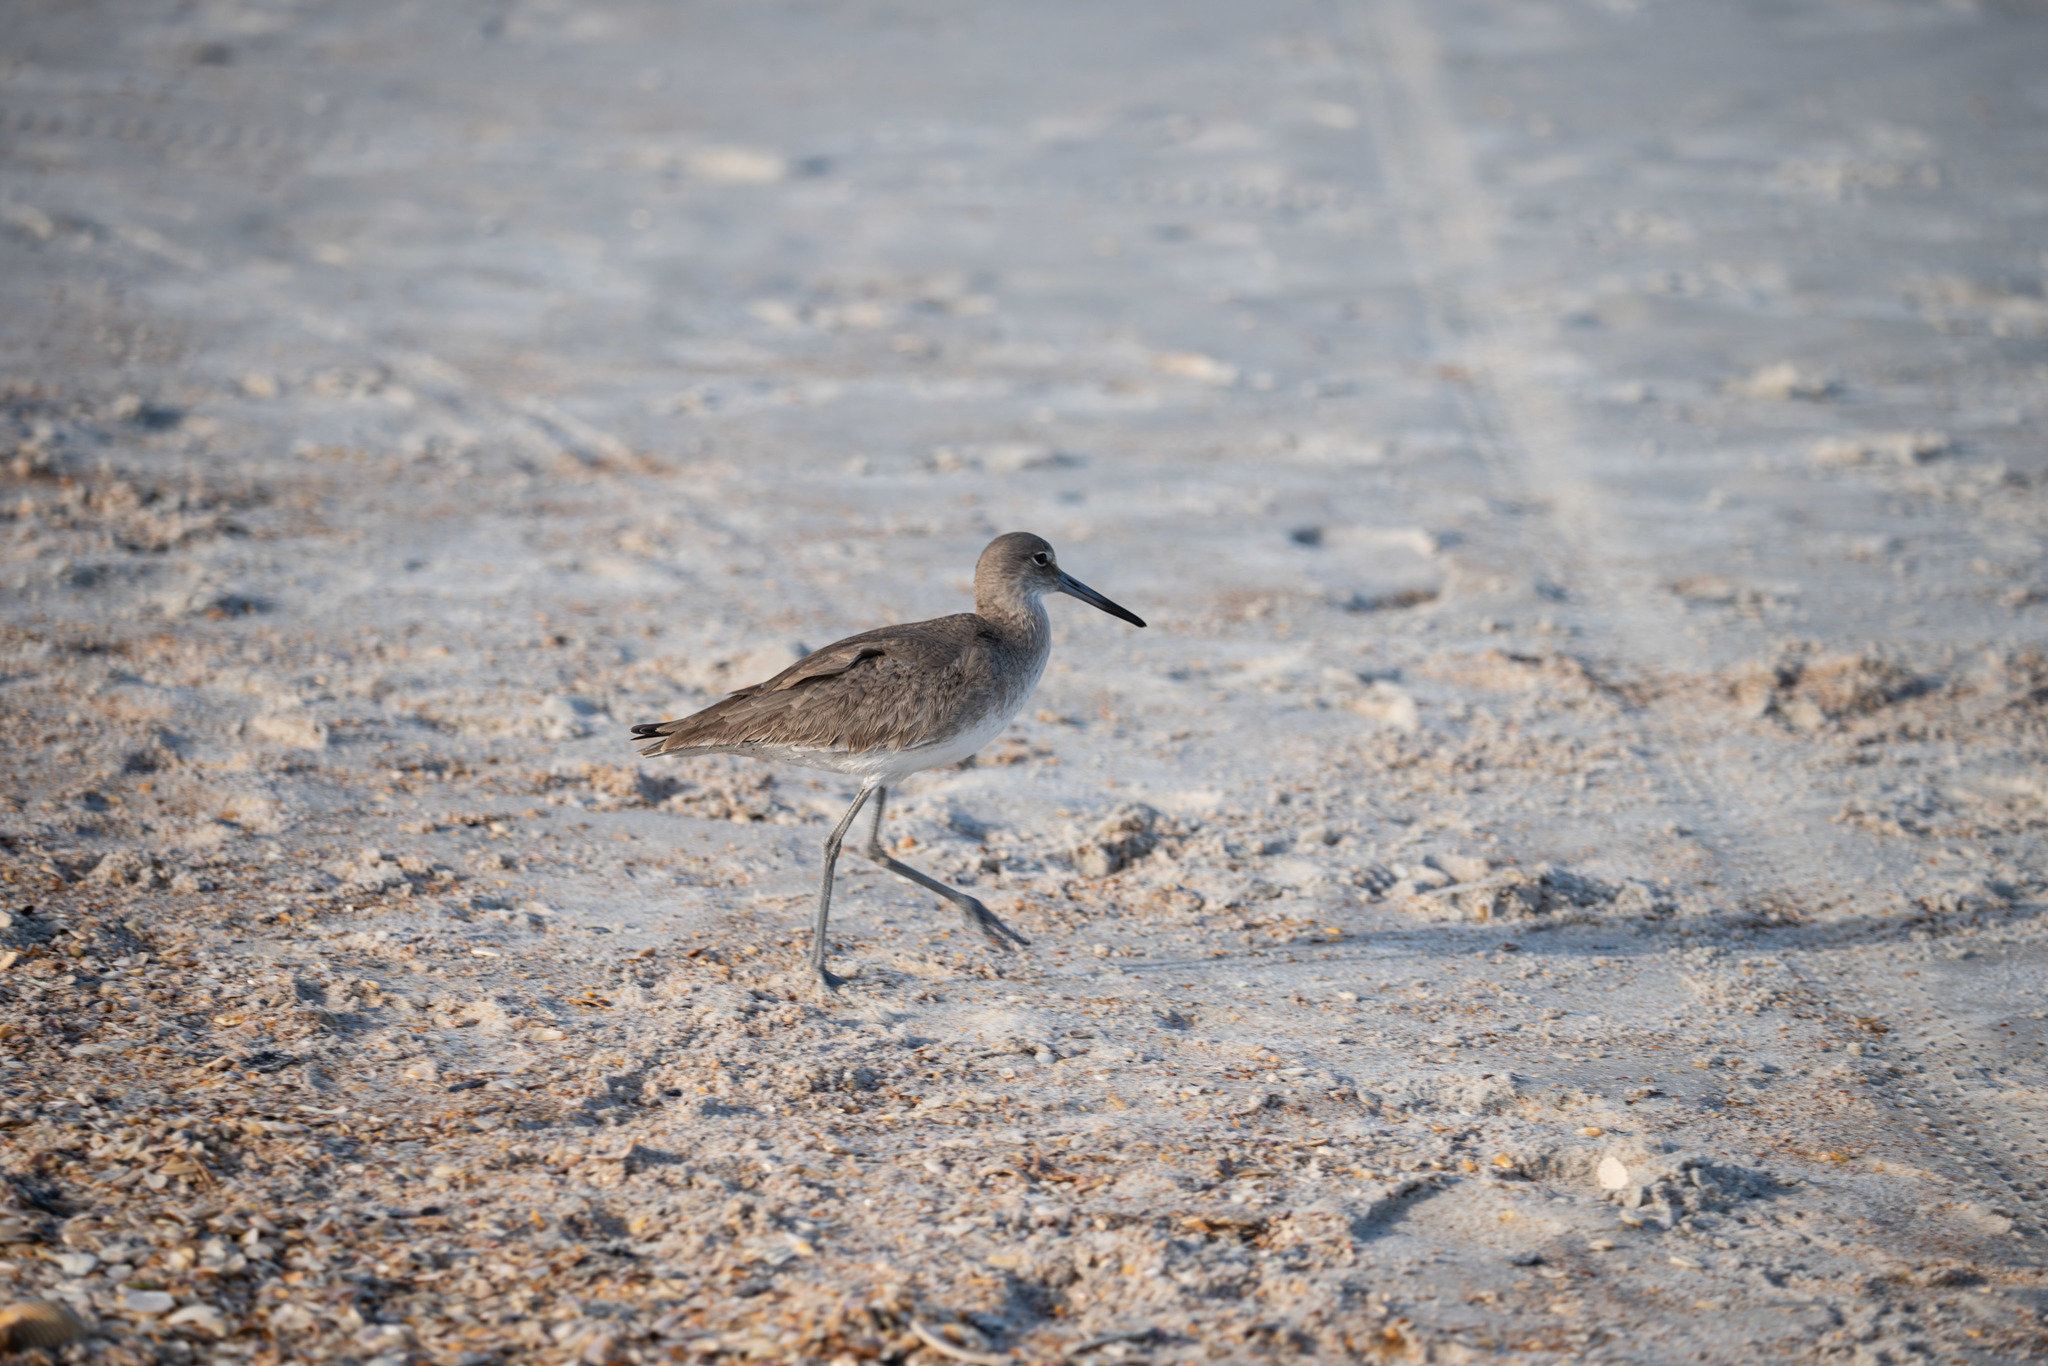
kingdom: Animalia
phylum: Chordata
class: Aves
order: Charadriiformes
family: Scolopacidae
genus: Tringa
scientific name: Tringa semipalmata
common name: Willet
